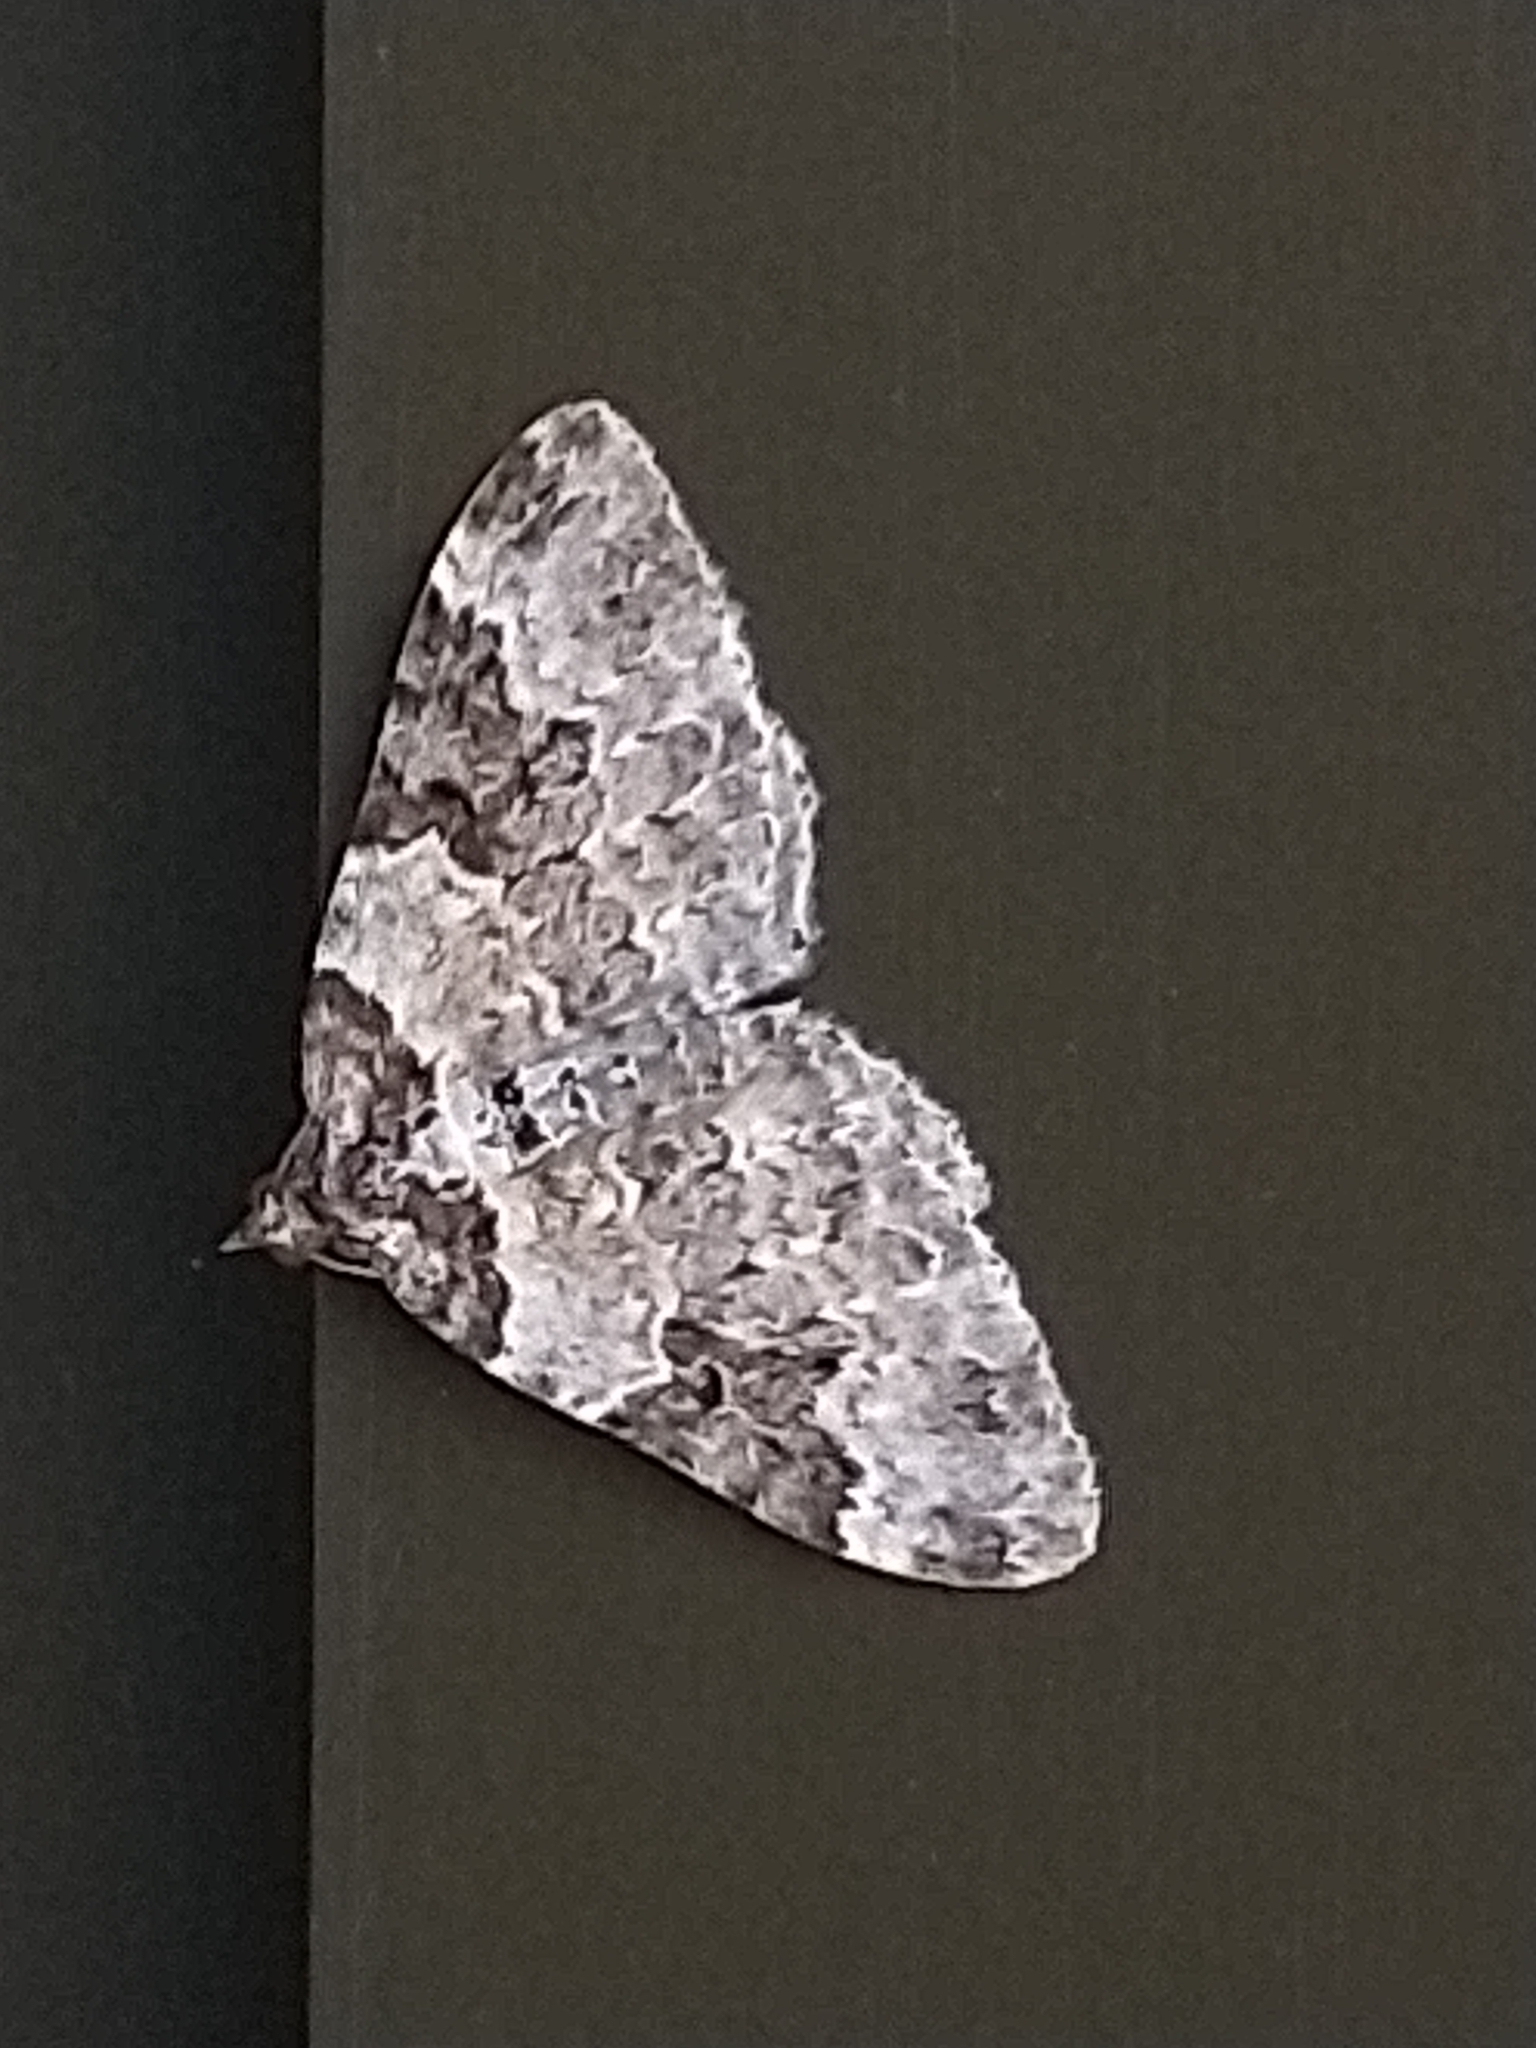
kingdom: Animalia
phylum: Arthropoda
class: Insecta
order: Lepidoptera
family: Geometridae
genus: Xanthorhoe
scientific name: Xanthorhoe fluctuata
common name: Garden carpet
